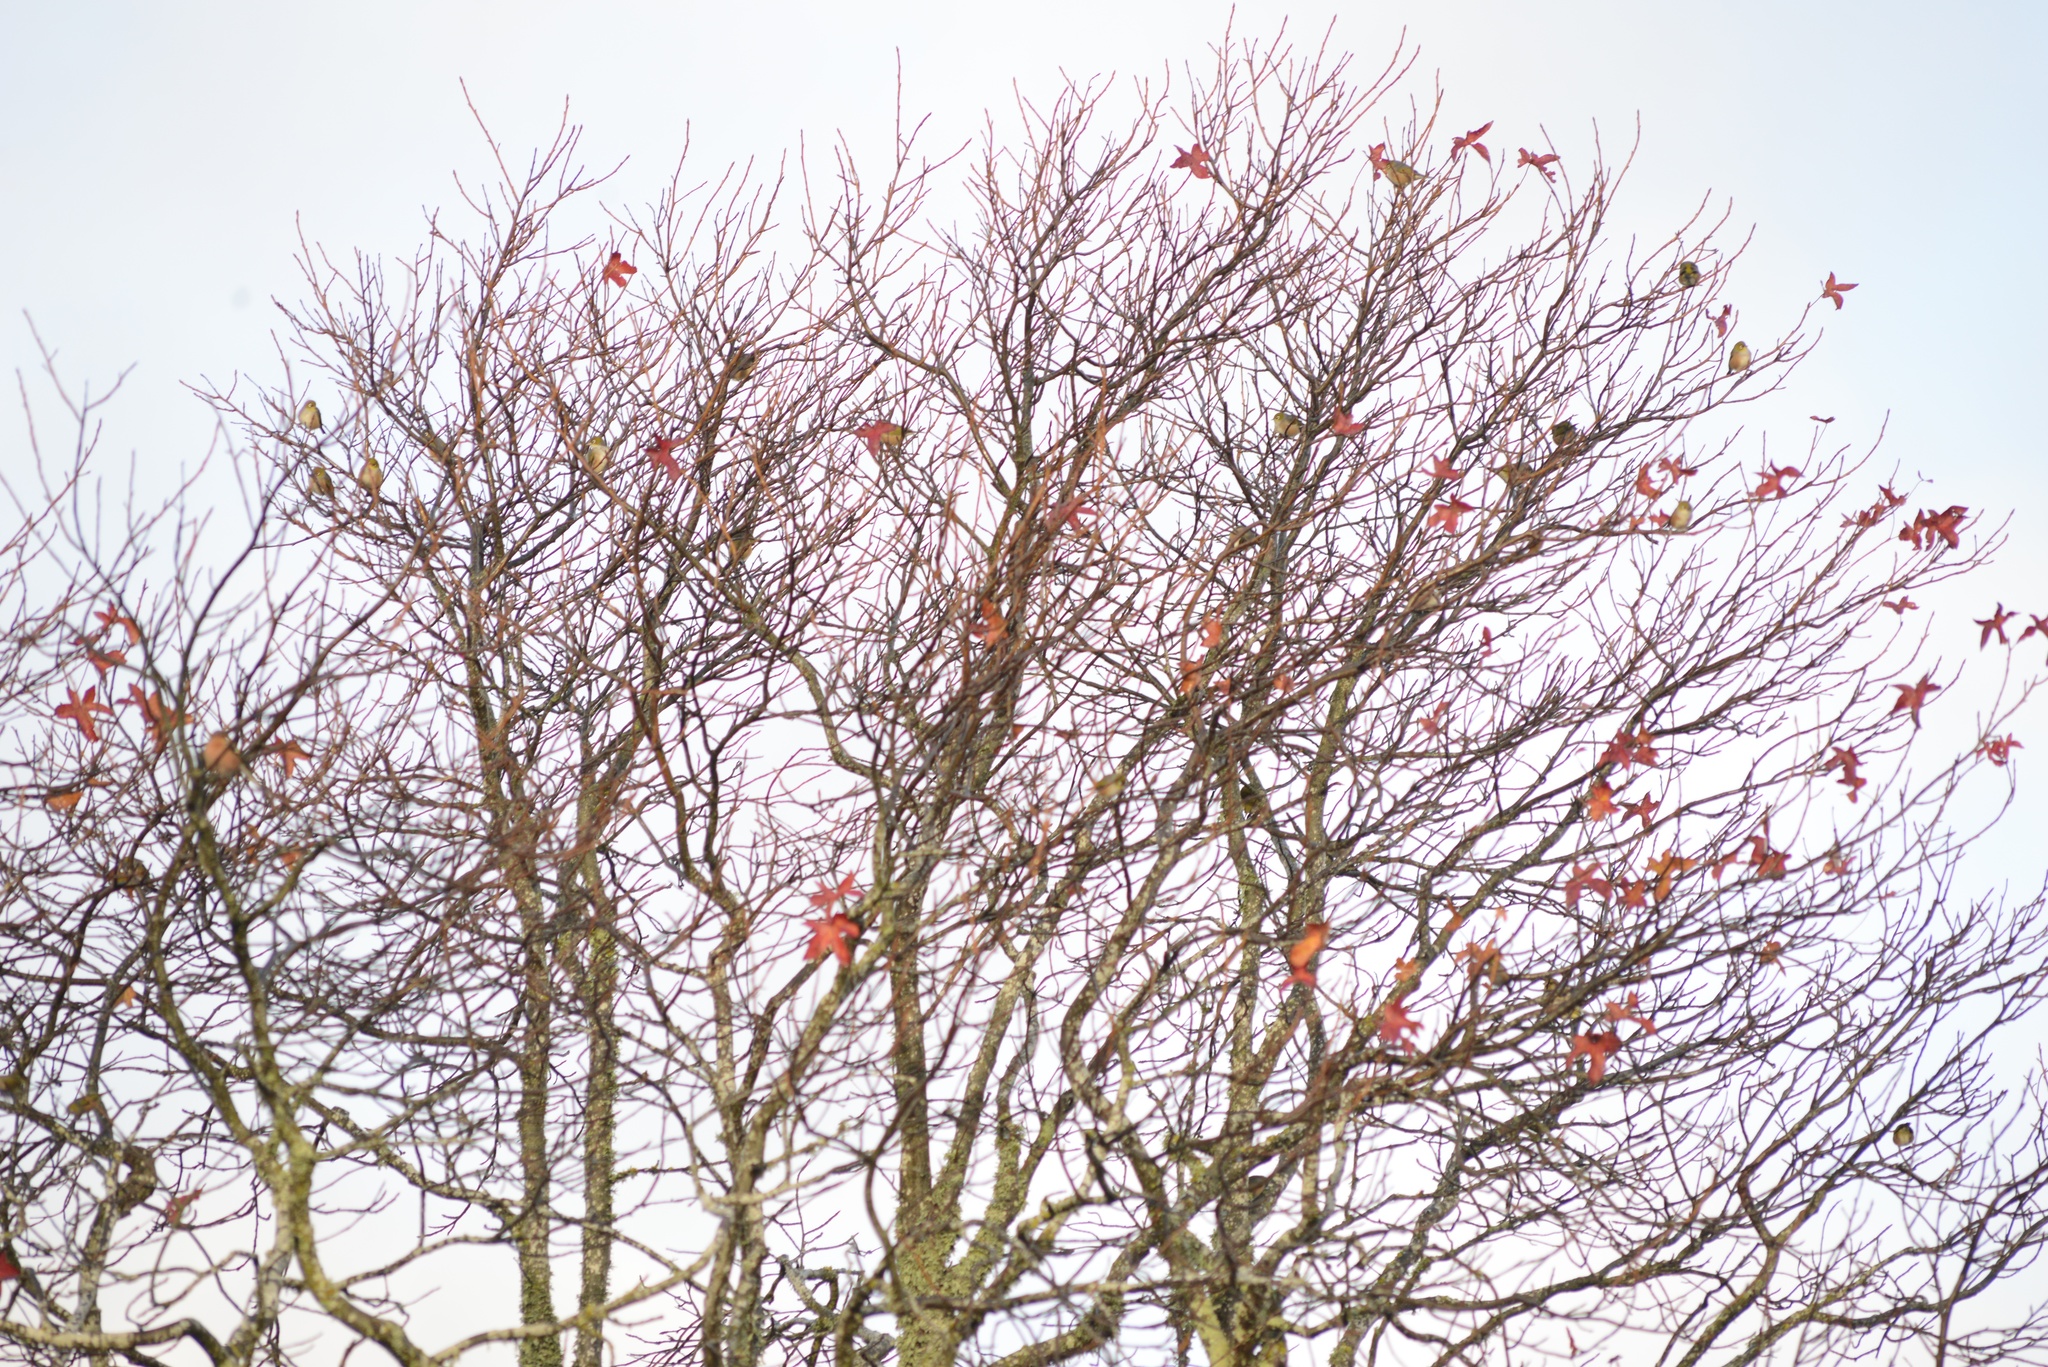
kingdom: Animalia
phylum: Chordata
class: Aves
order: Passeriformes
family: Zosteropidae
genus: Zosterops
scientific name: Zosterops lateralis
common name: Silvereye
